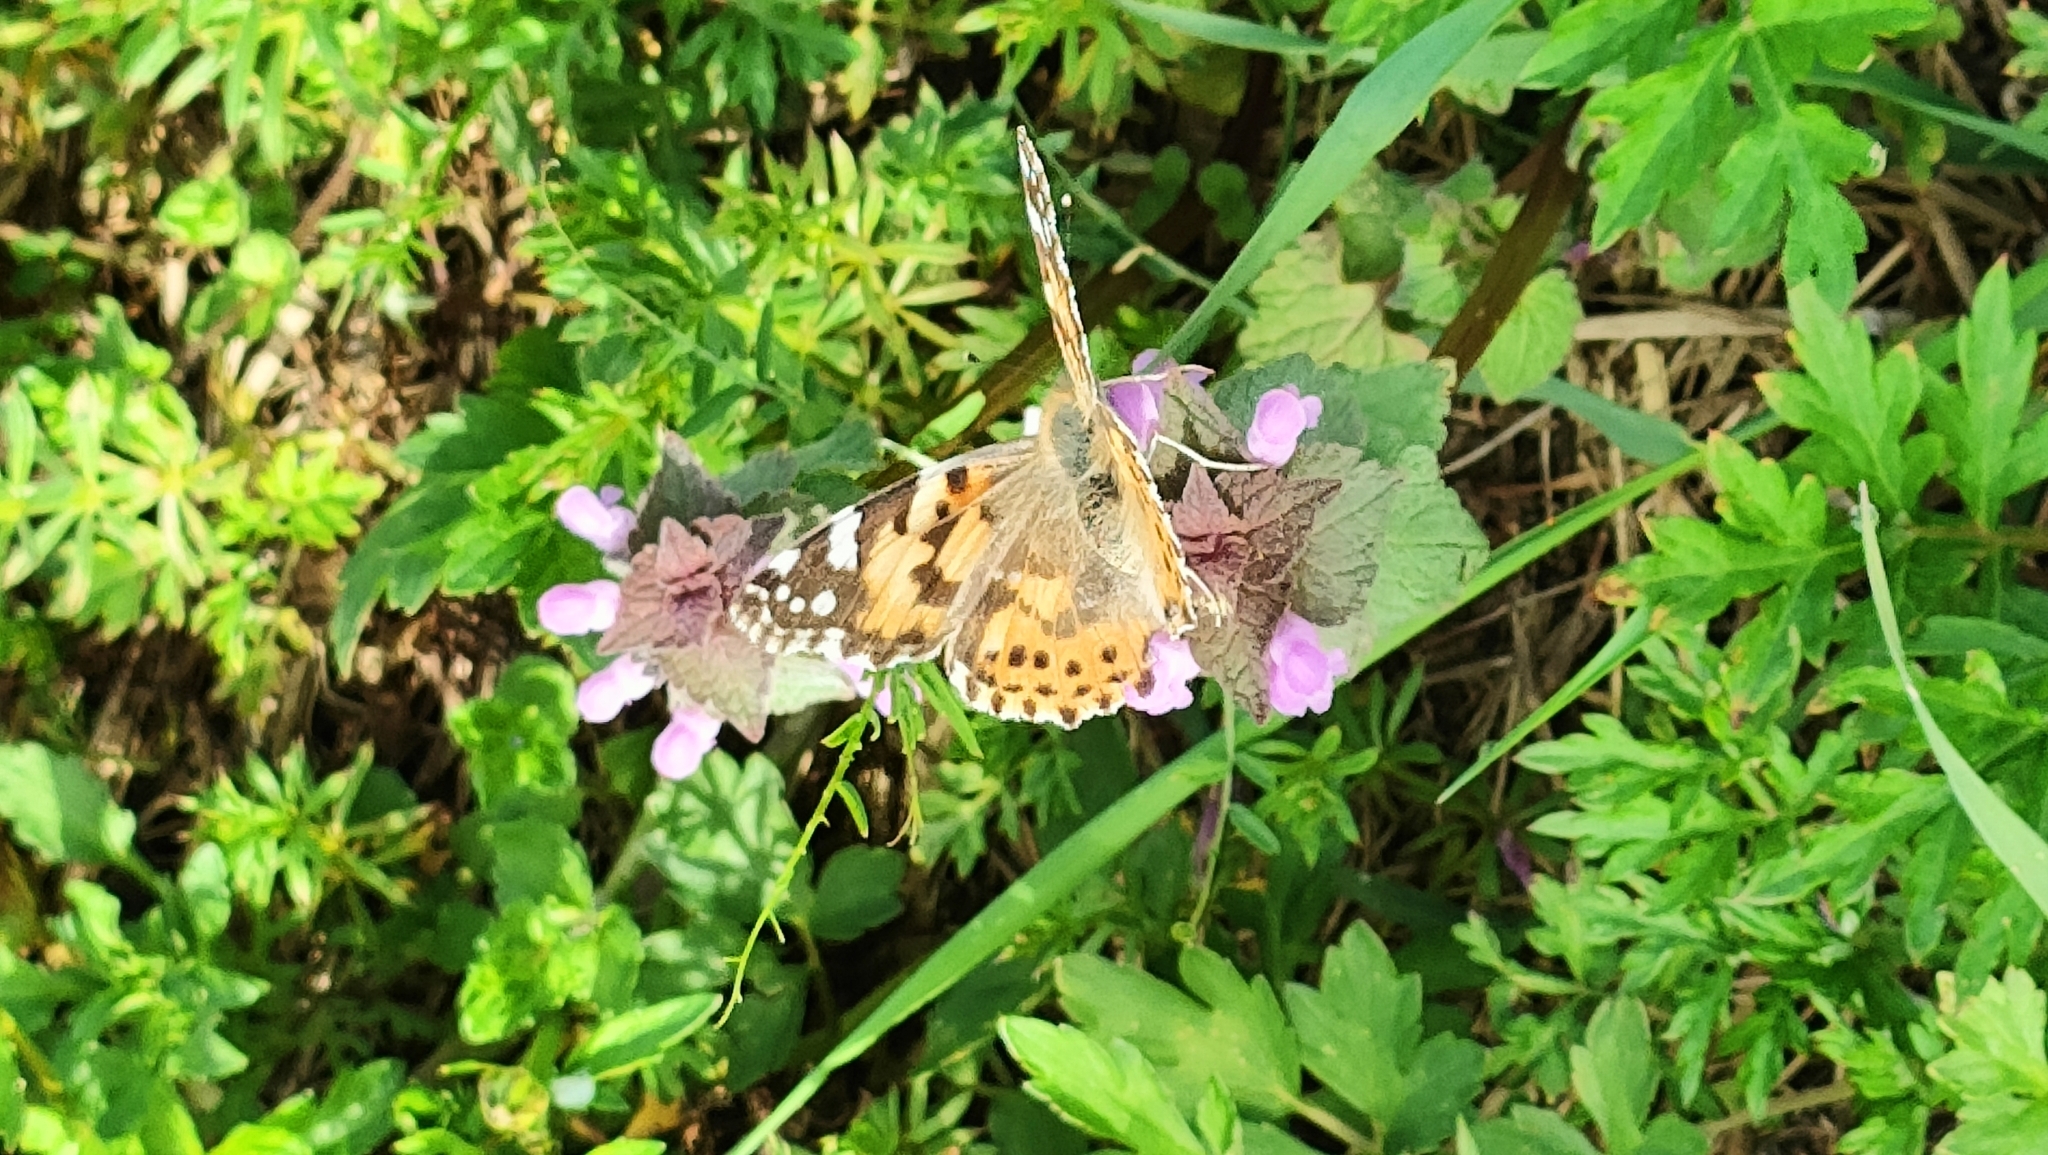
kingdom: Animalia
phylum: Arthropoda
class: Insecta
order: Lepidoptera
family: Nymphalidae
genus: Vanessa
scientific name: Vanessa cardui
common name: Painted lady
